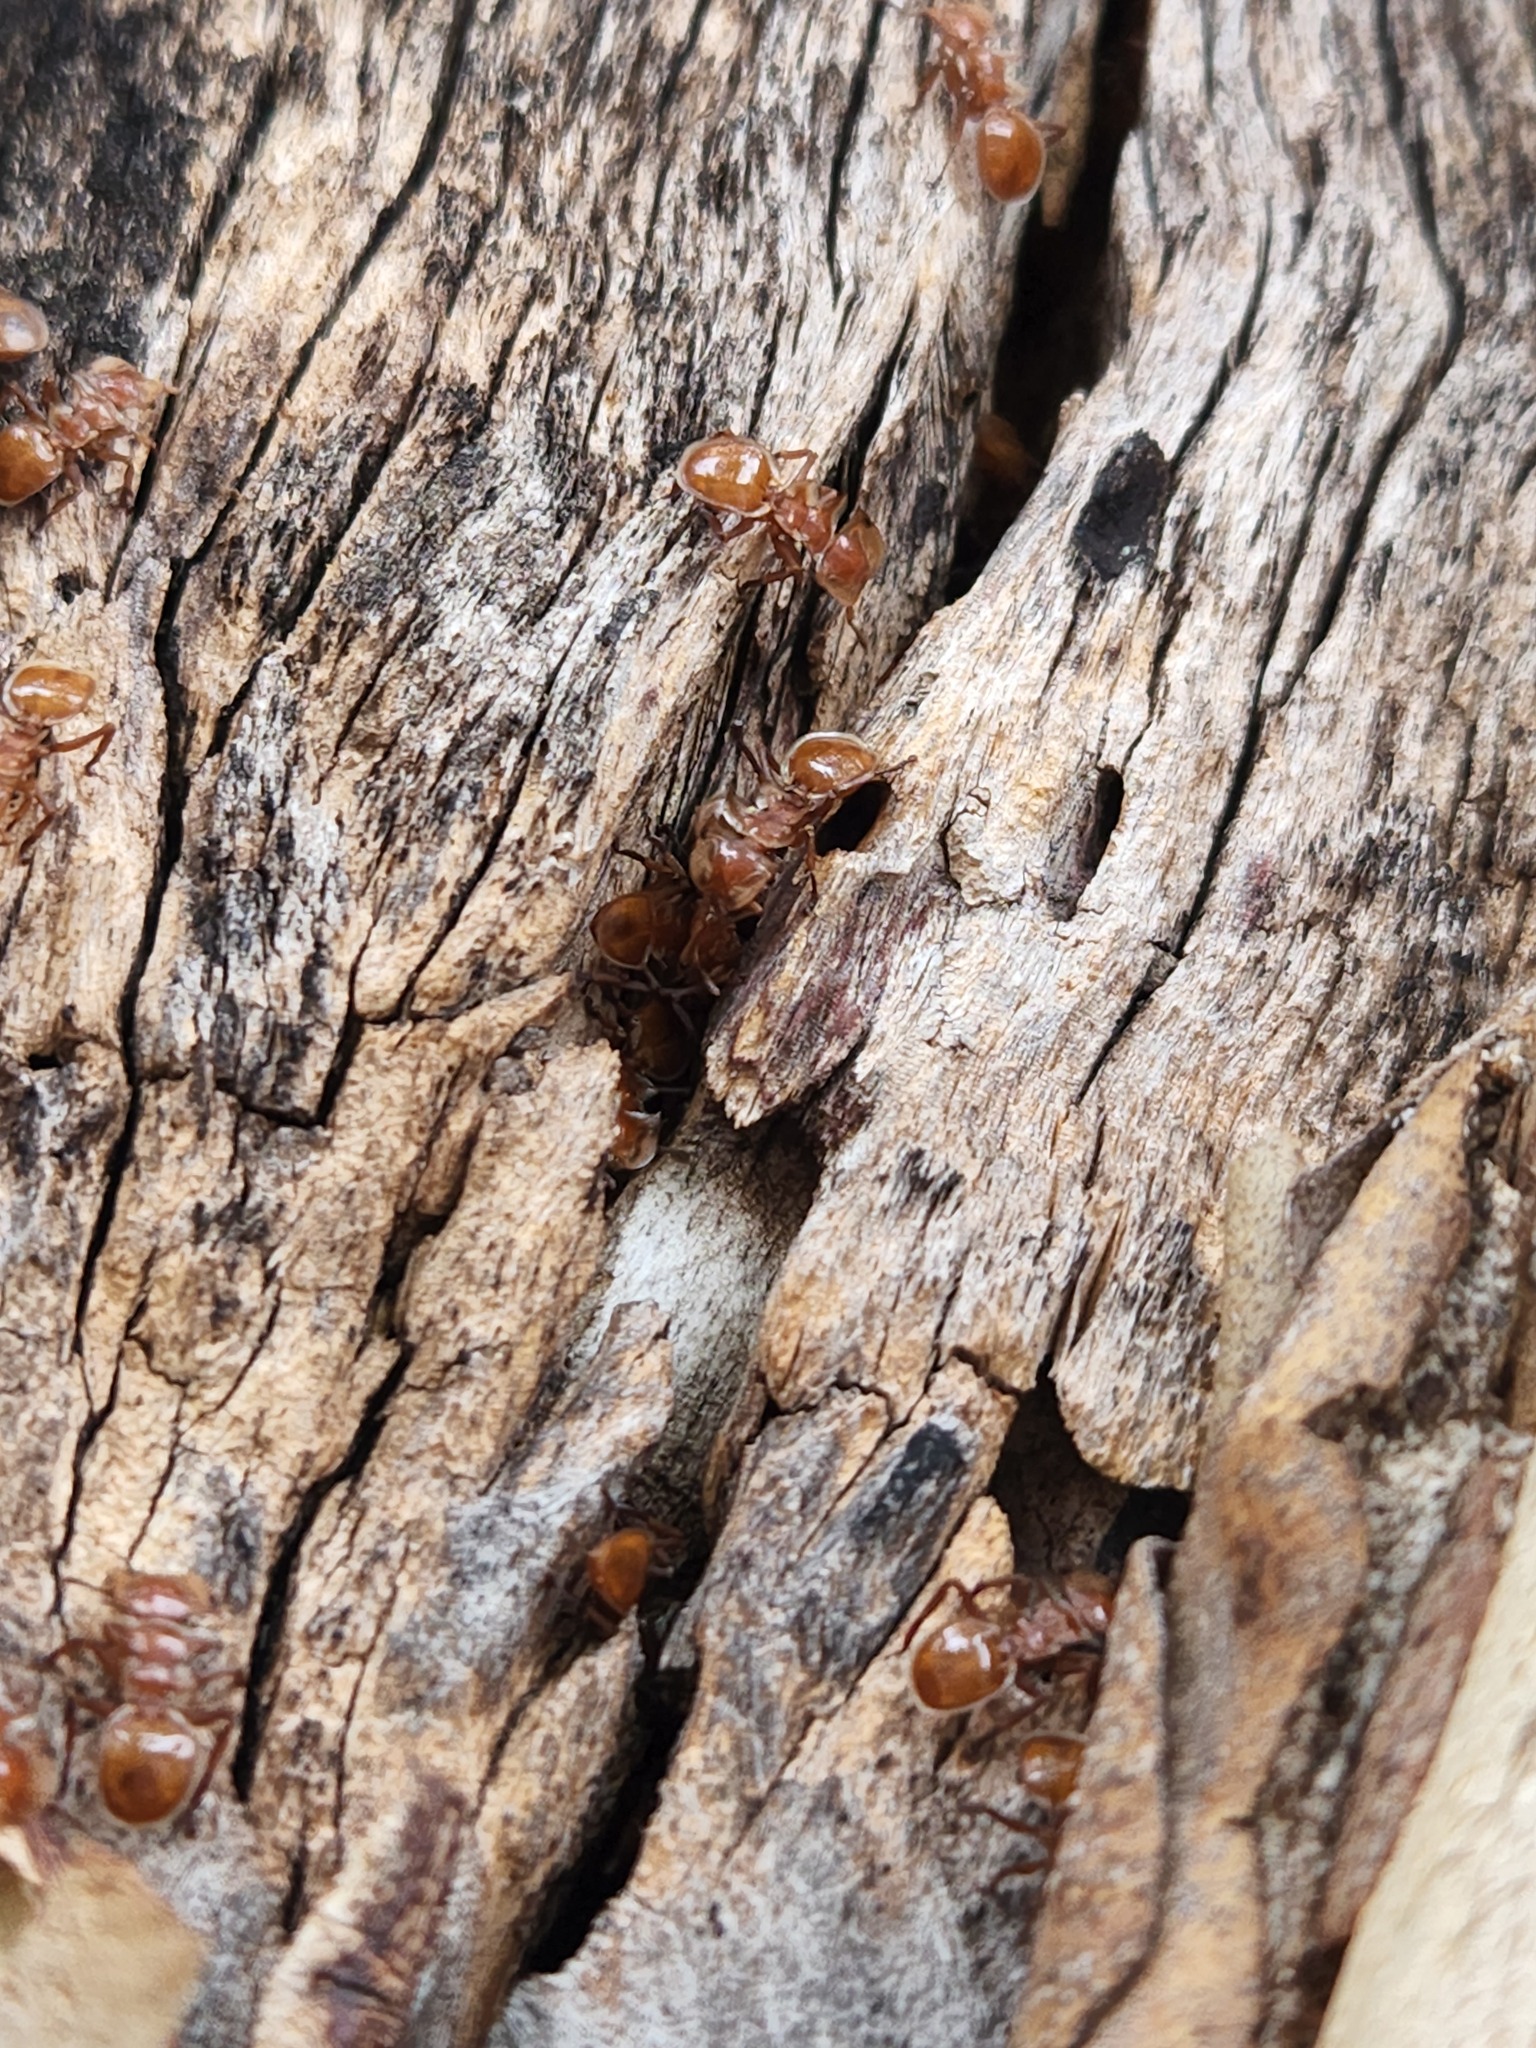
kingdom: Animalia
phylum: Arthropoda
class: Insecta
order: Hymenoptera
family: Formicidae
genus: Cephalotes
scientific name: Cephalotes clypeatus
